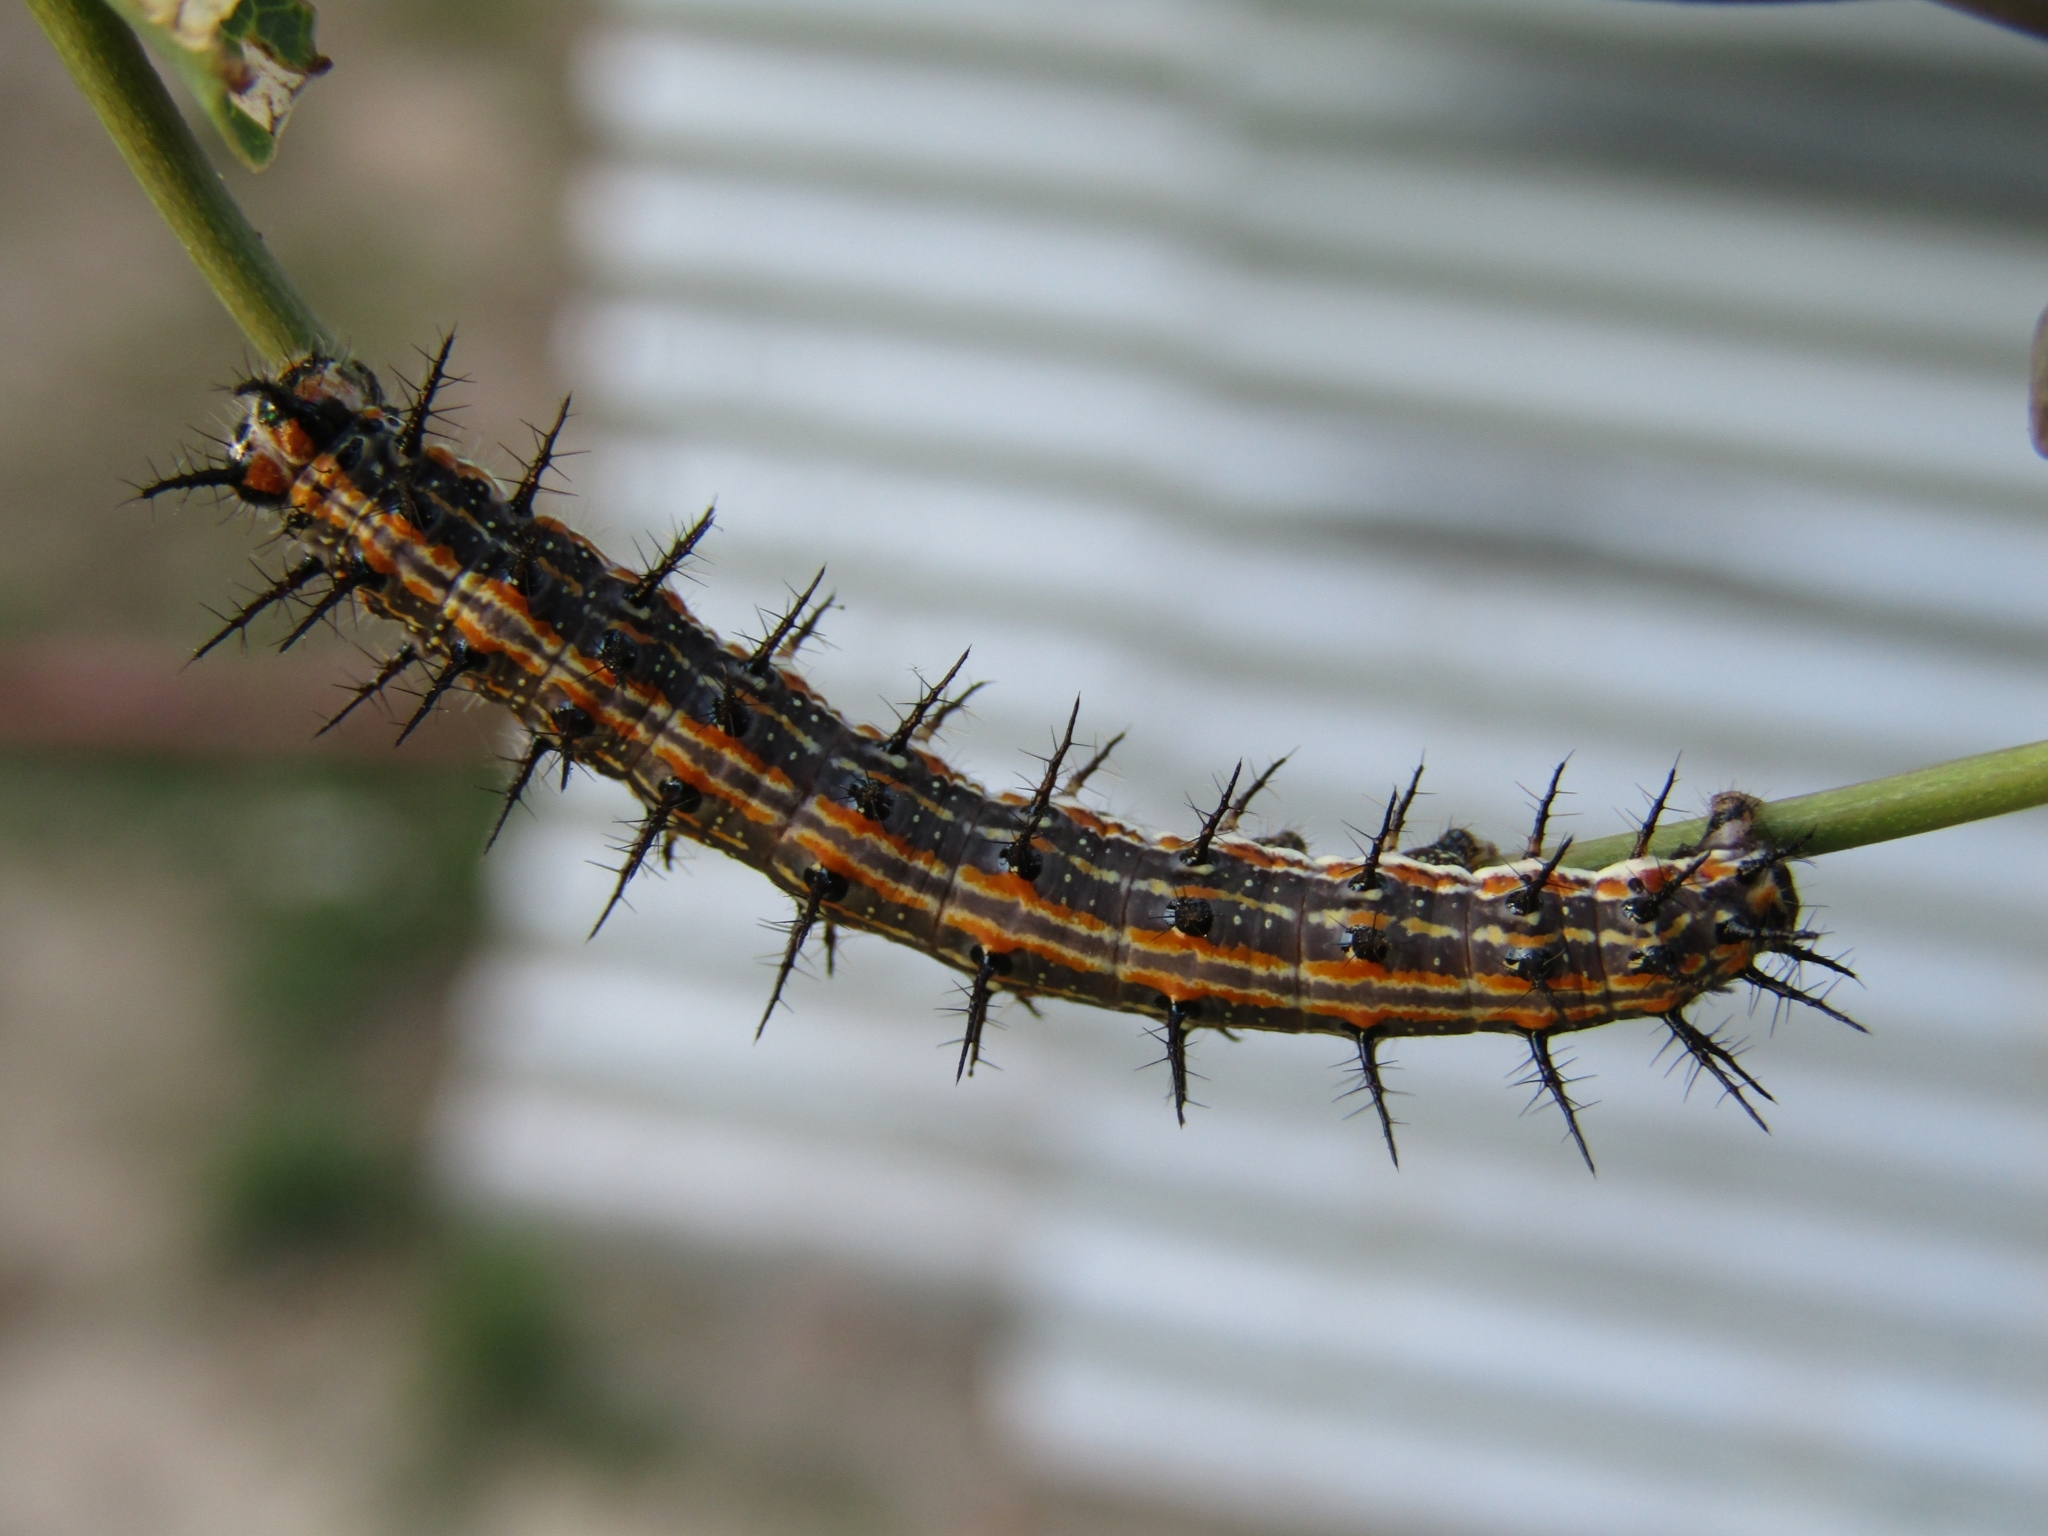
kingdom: Animalia
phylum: Arthropoda
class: Insecta
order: Lepidoptera
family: Nymphalidae
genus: Dione
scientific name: Dione vanillae
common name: Gulf fritillary
